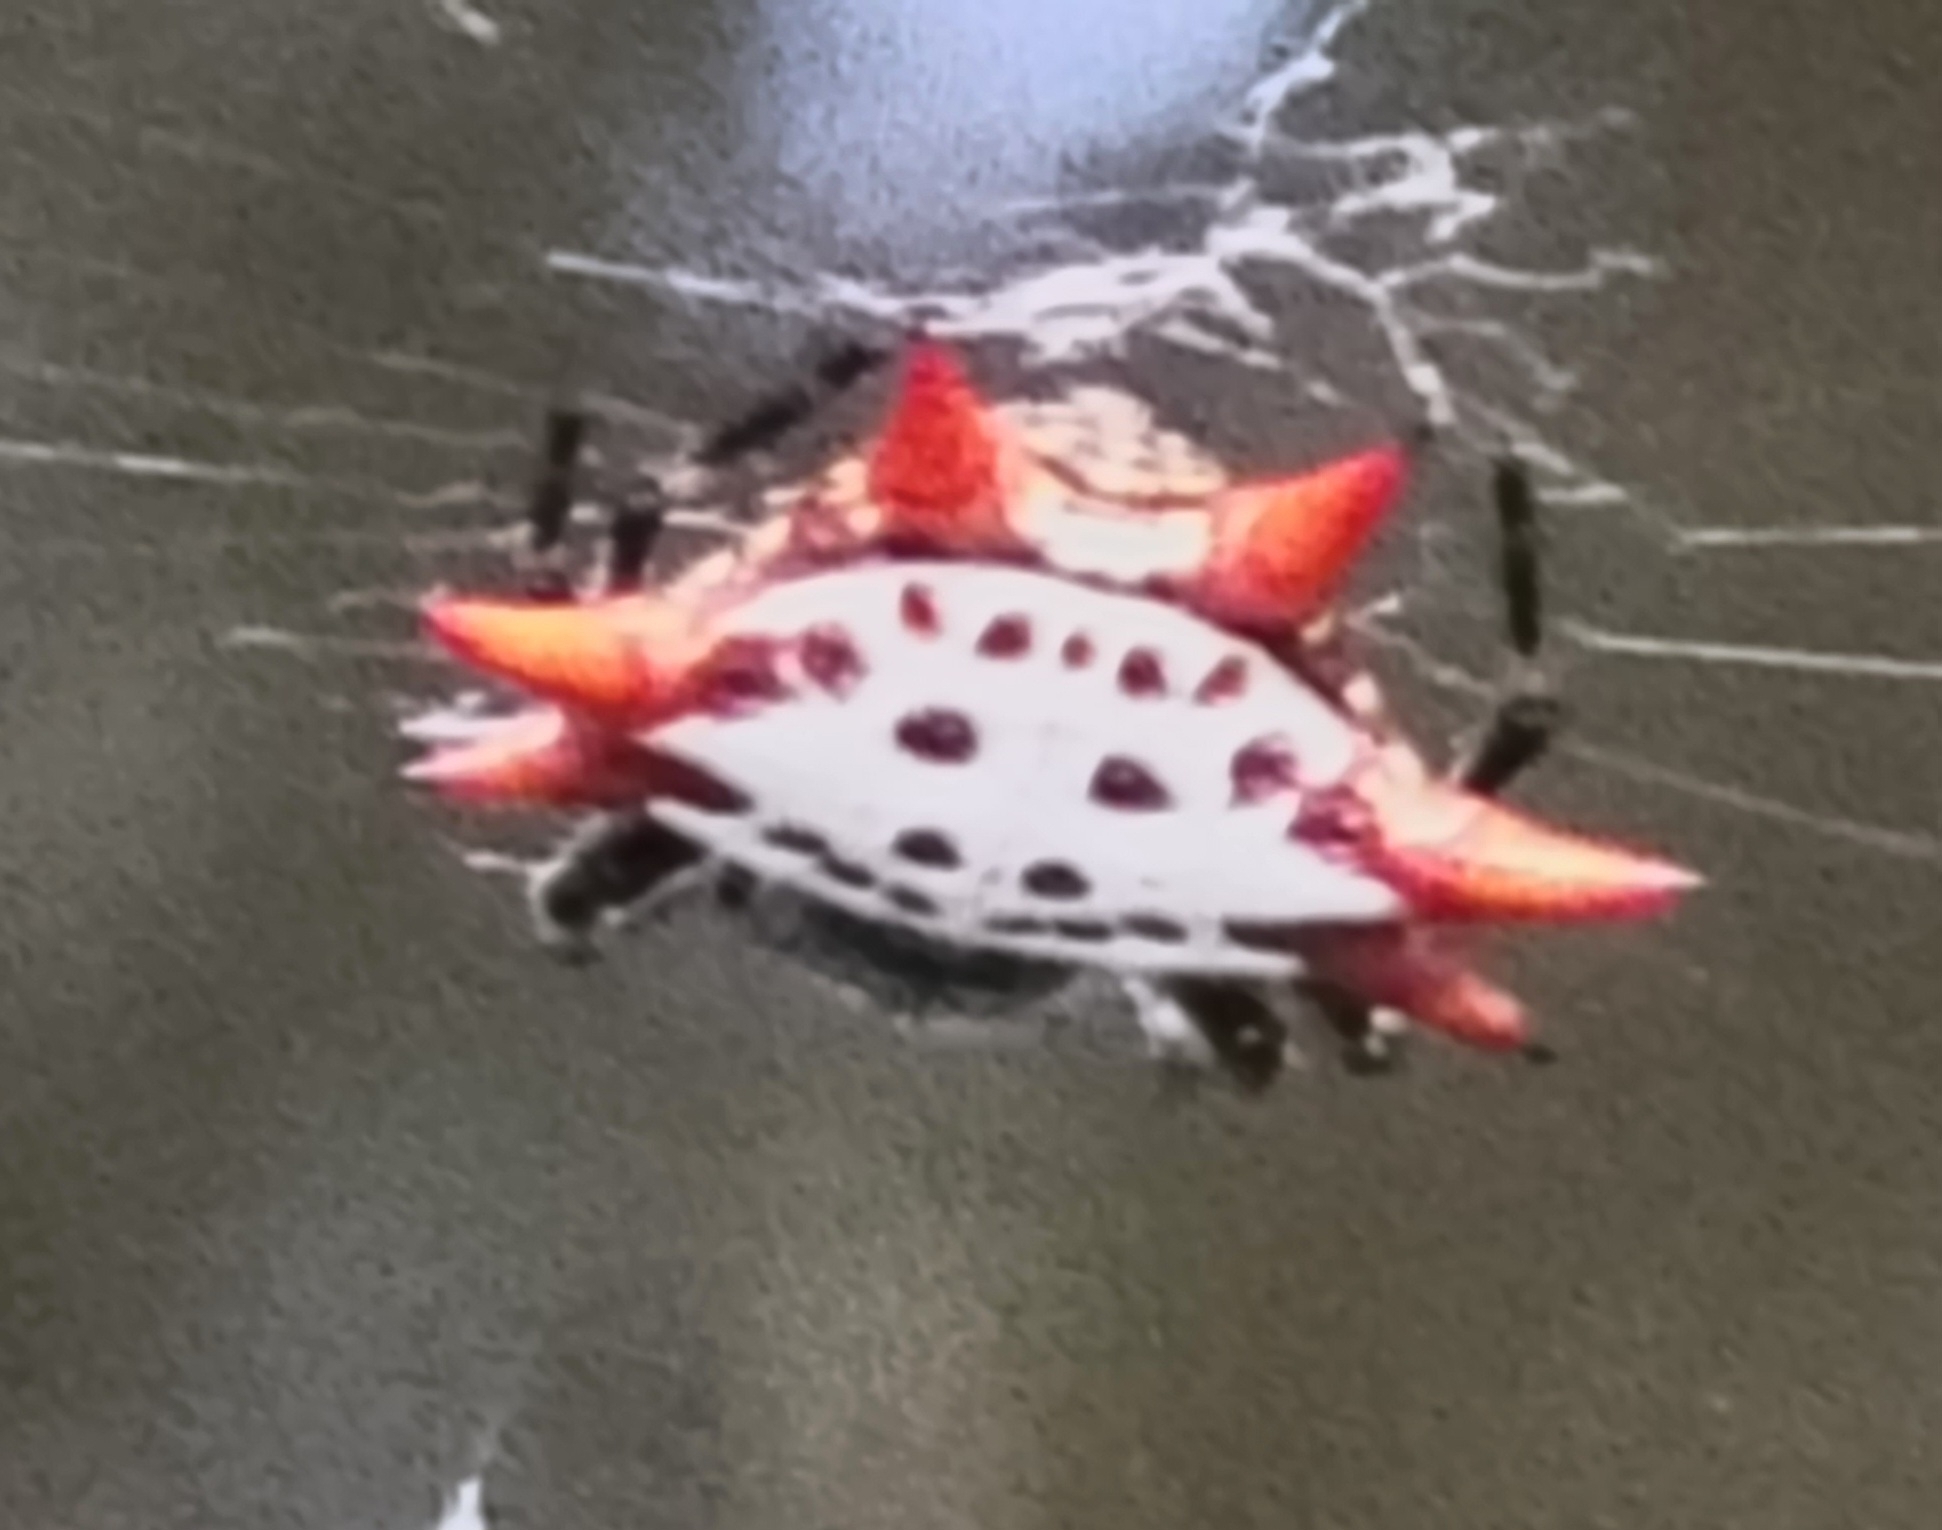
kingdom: Animalia
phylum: Arthropoda
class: Arachnida
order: Araneae
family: Araneidae
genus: Gasteracantha
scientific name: Gasteracantha cancriformis
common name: Orb weavers
